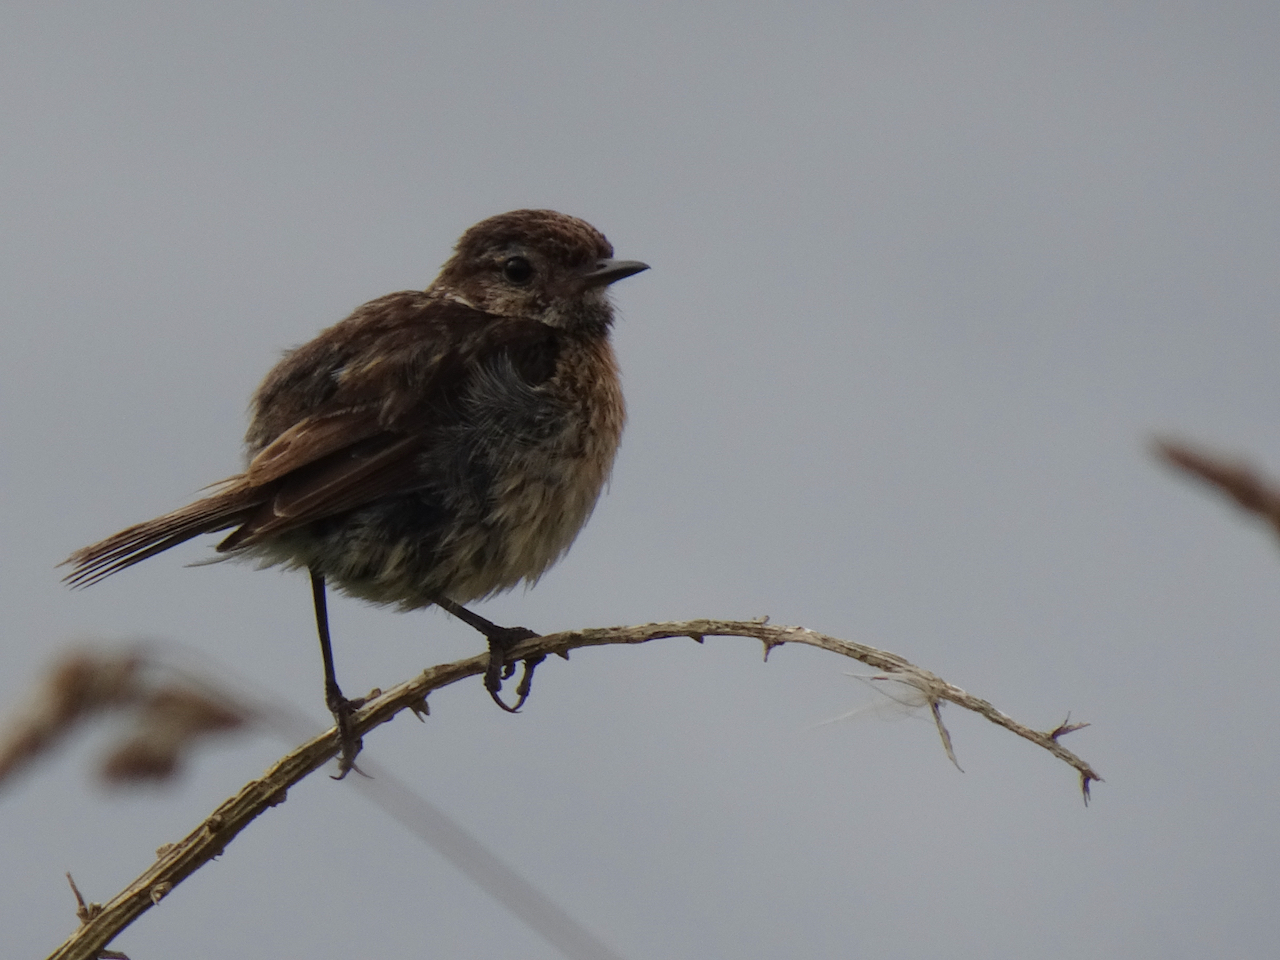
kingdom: Animalia
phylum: Chordata
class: Aves
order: Passeriformes
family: Muscicapidae
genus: Saxicola
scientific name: Saxicola rubicola
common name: European stonechat
